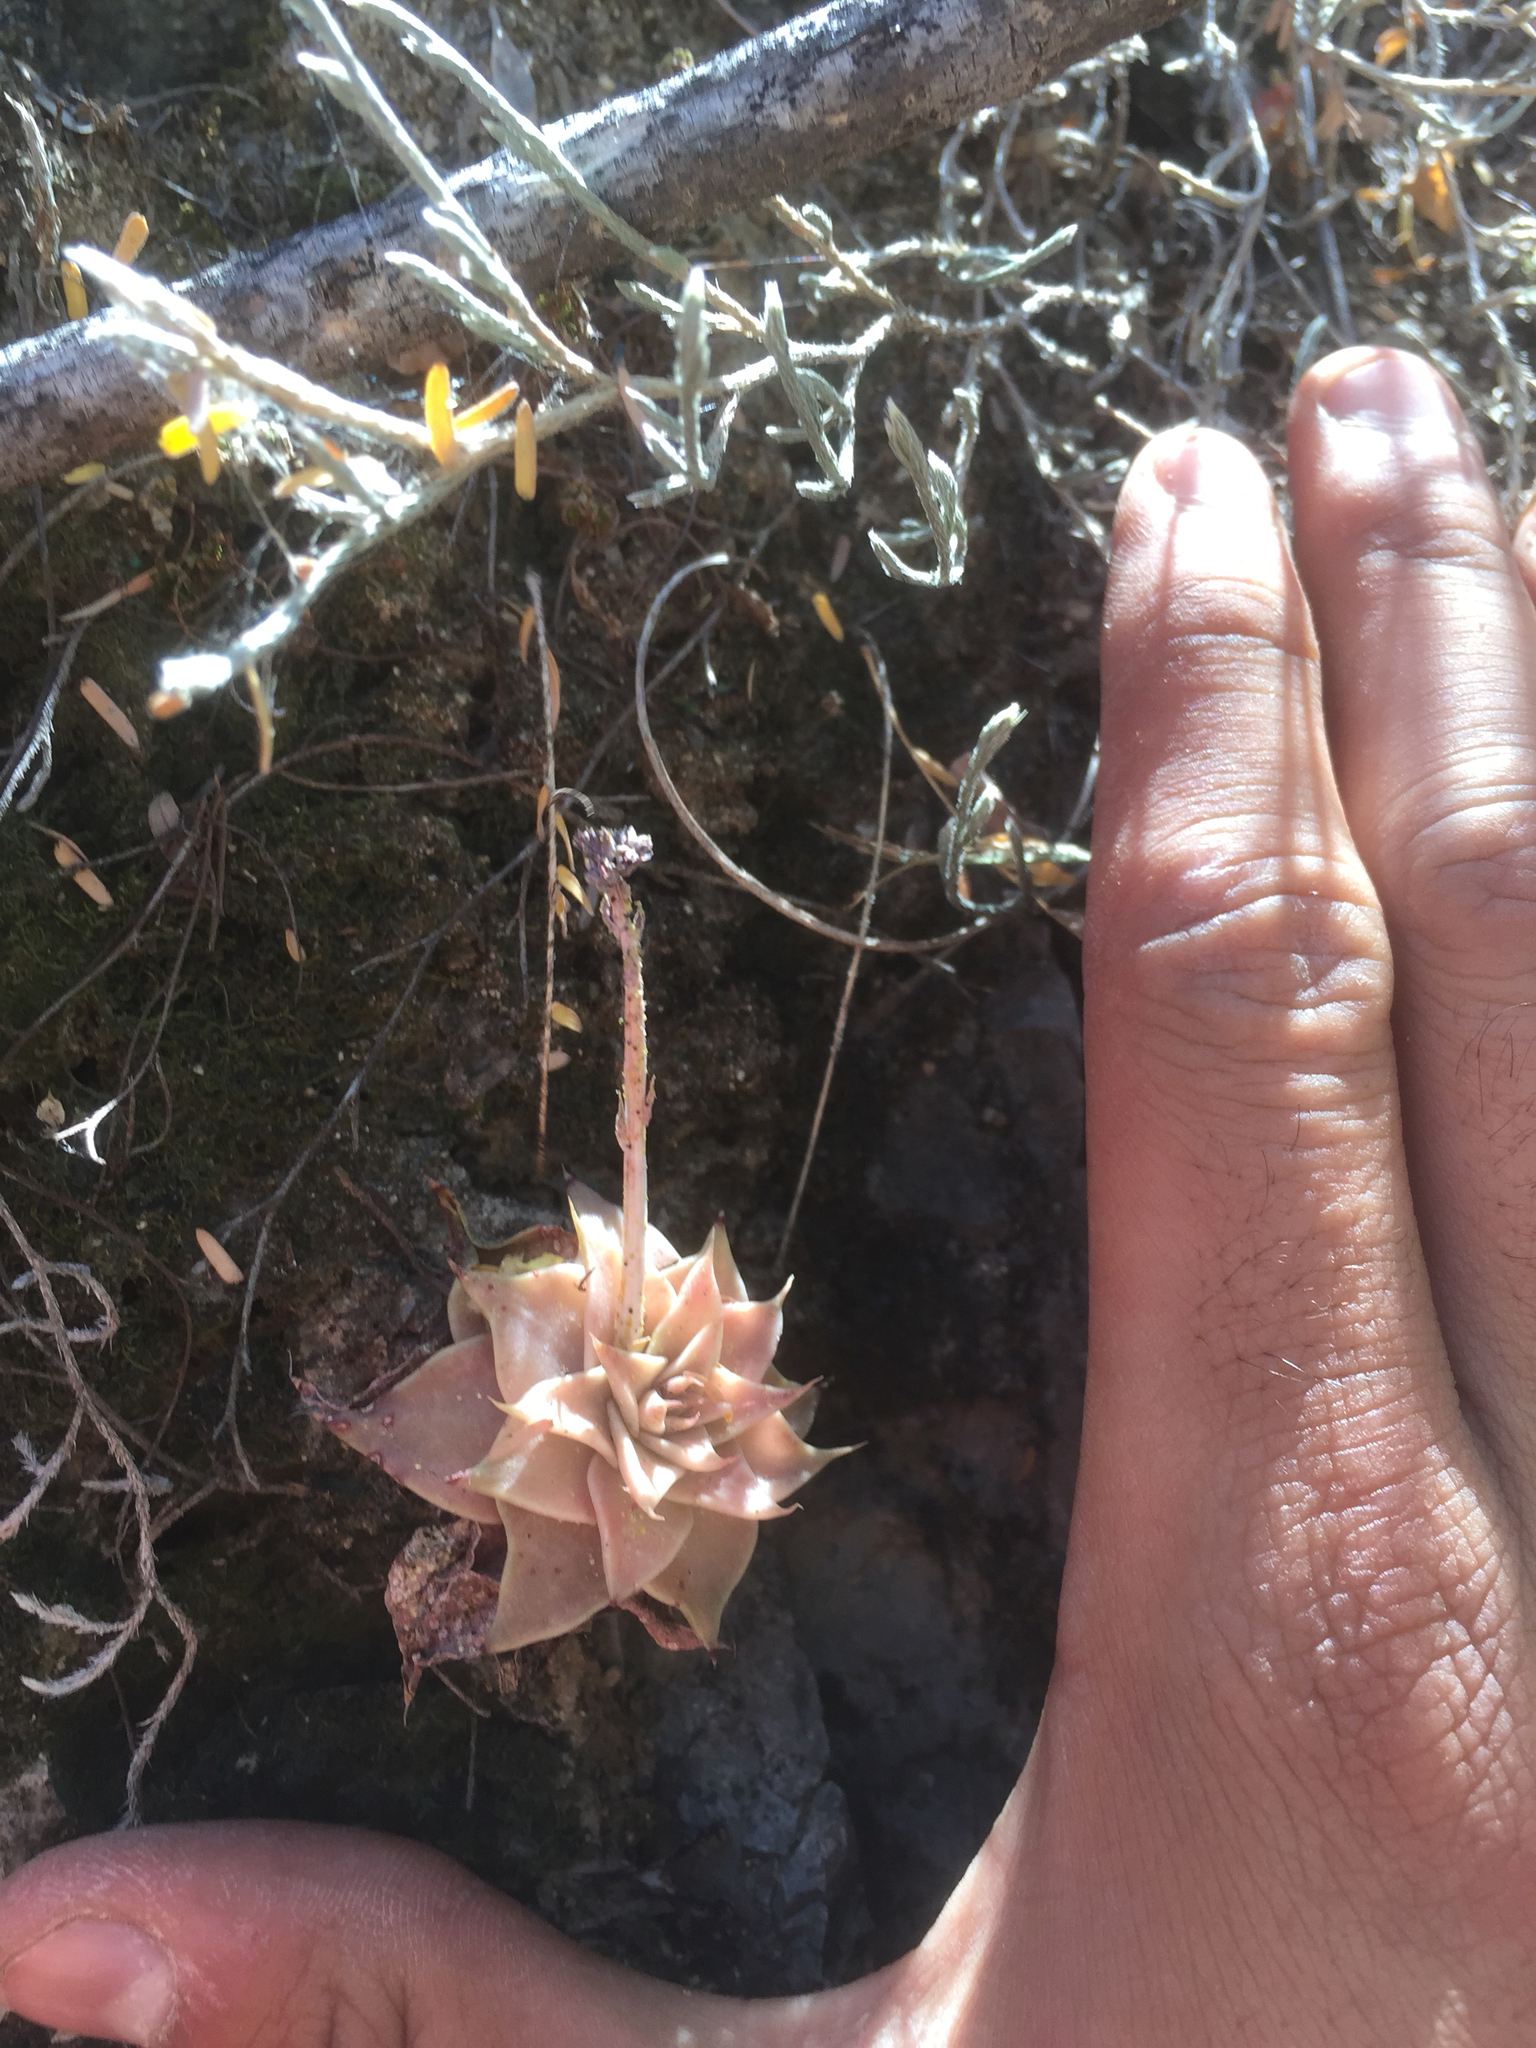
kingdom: Plantae
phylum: Tracheophyta
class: Magnoliopsida
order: Saxifragales
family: Crassulaceae
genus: Graptopetalum
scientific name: Graptopetalum bartramii
